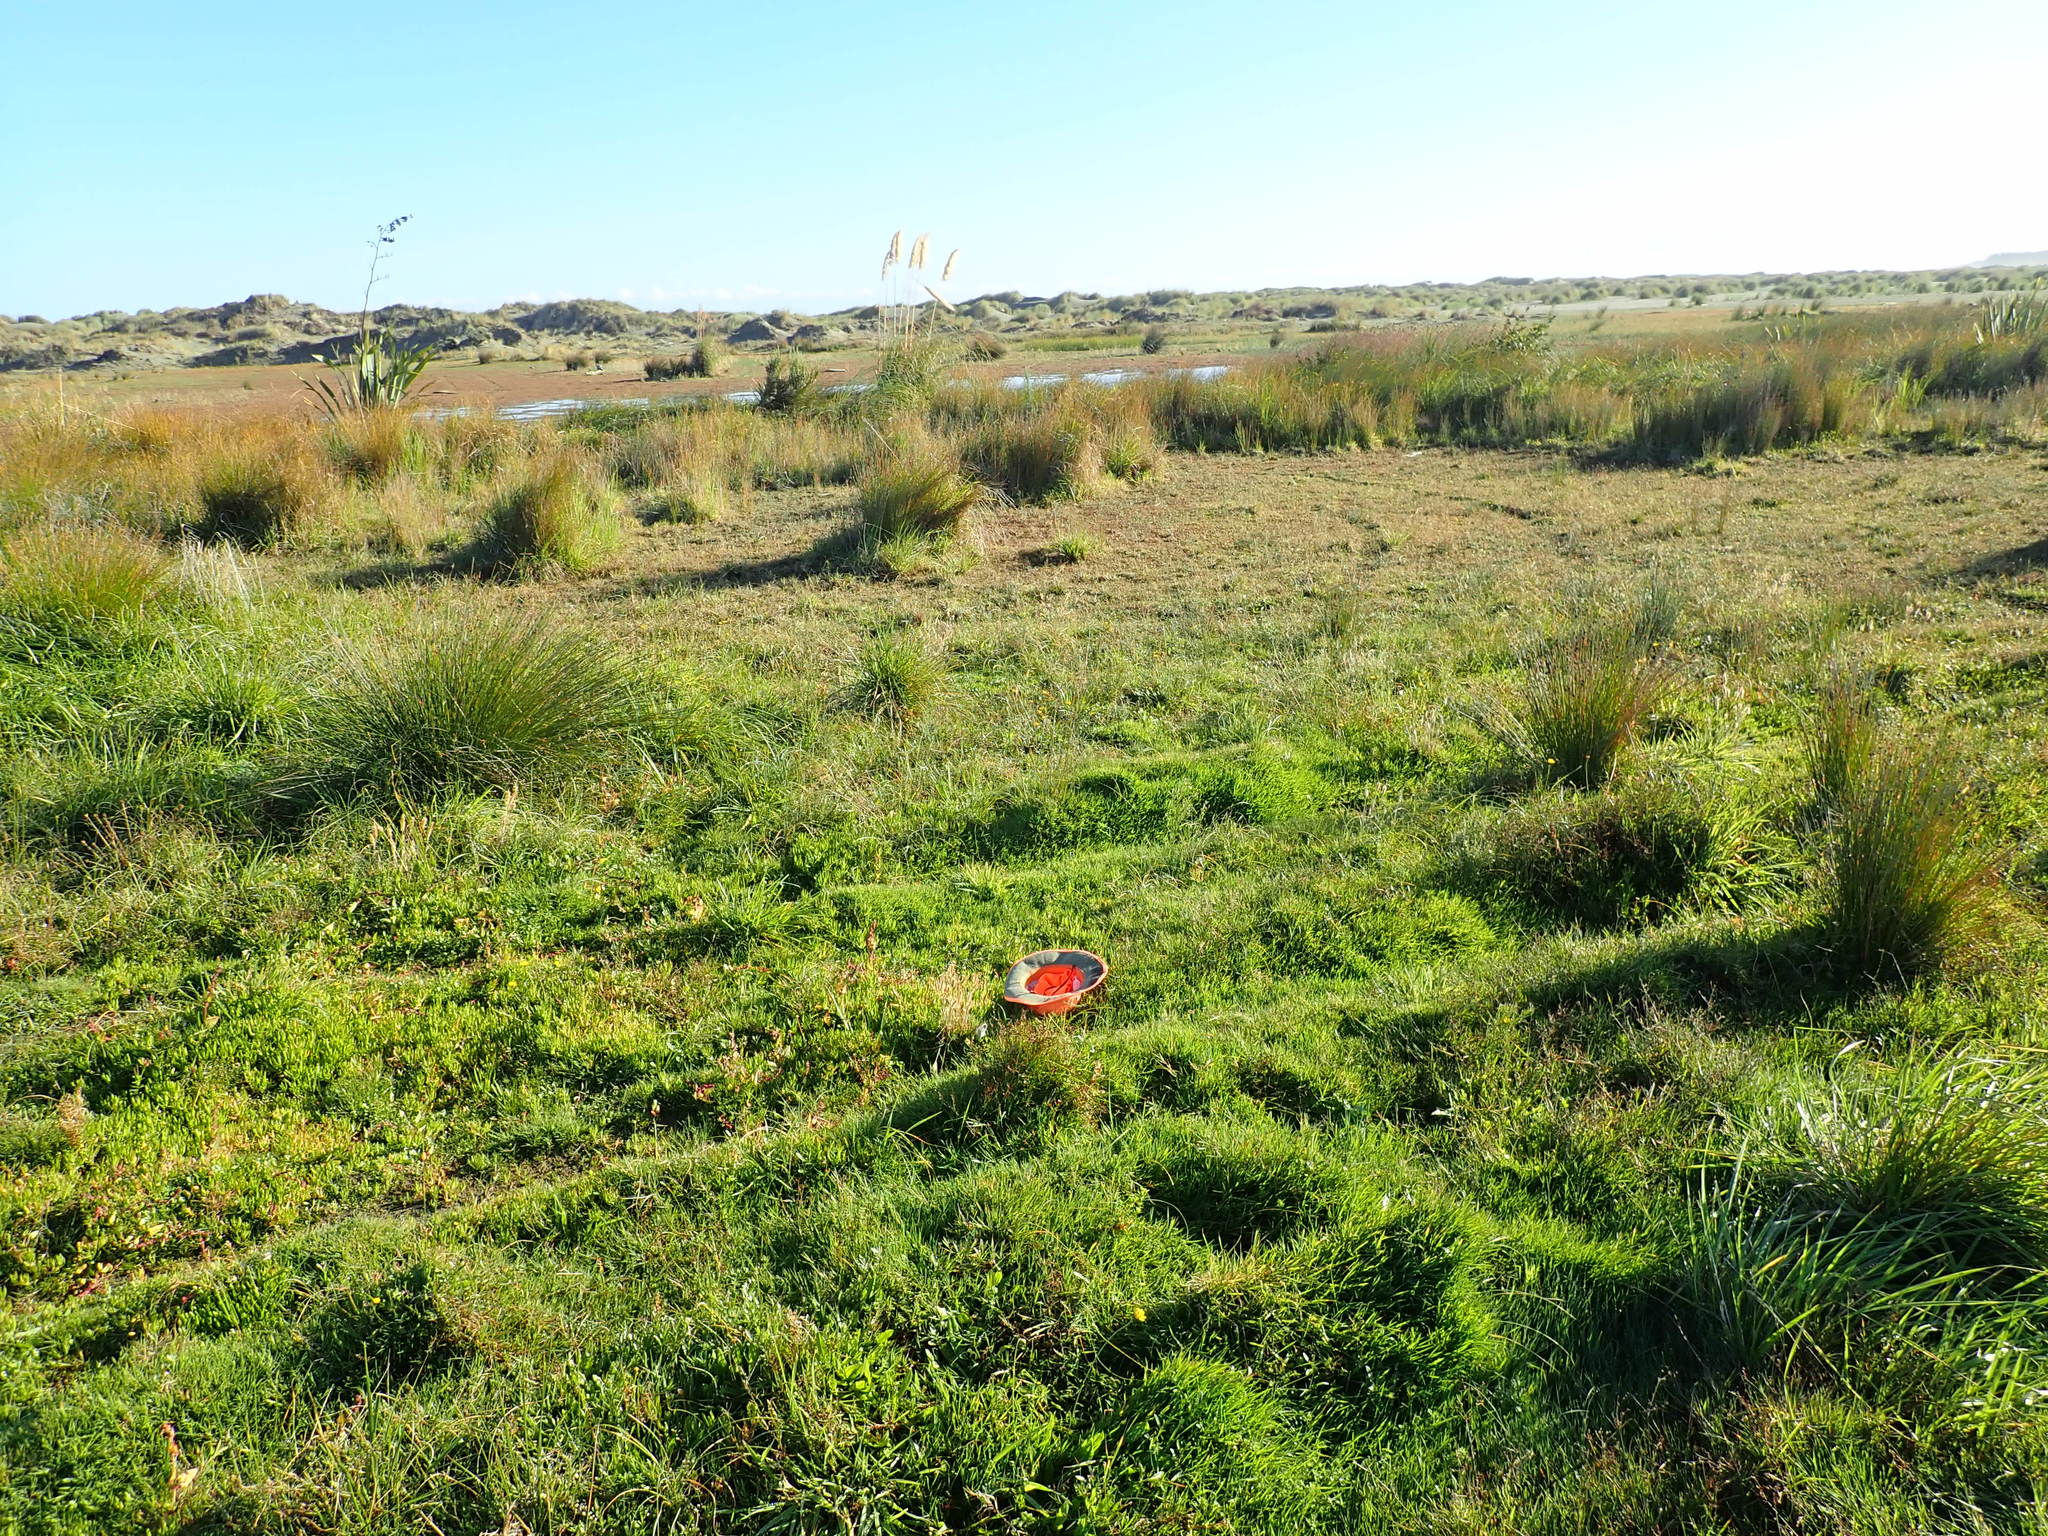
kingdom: Plantae
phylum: Tracheophyta
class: Magnoliopsida
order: Asterales
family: Asteraceae
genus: Cotula
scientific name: Cotula coronopifolia
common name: Buttonweed
